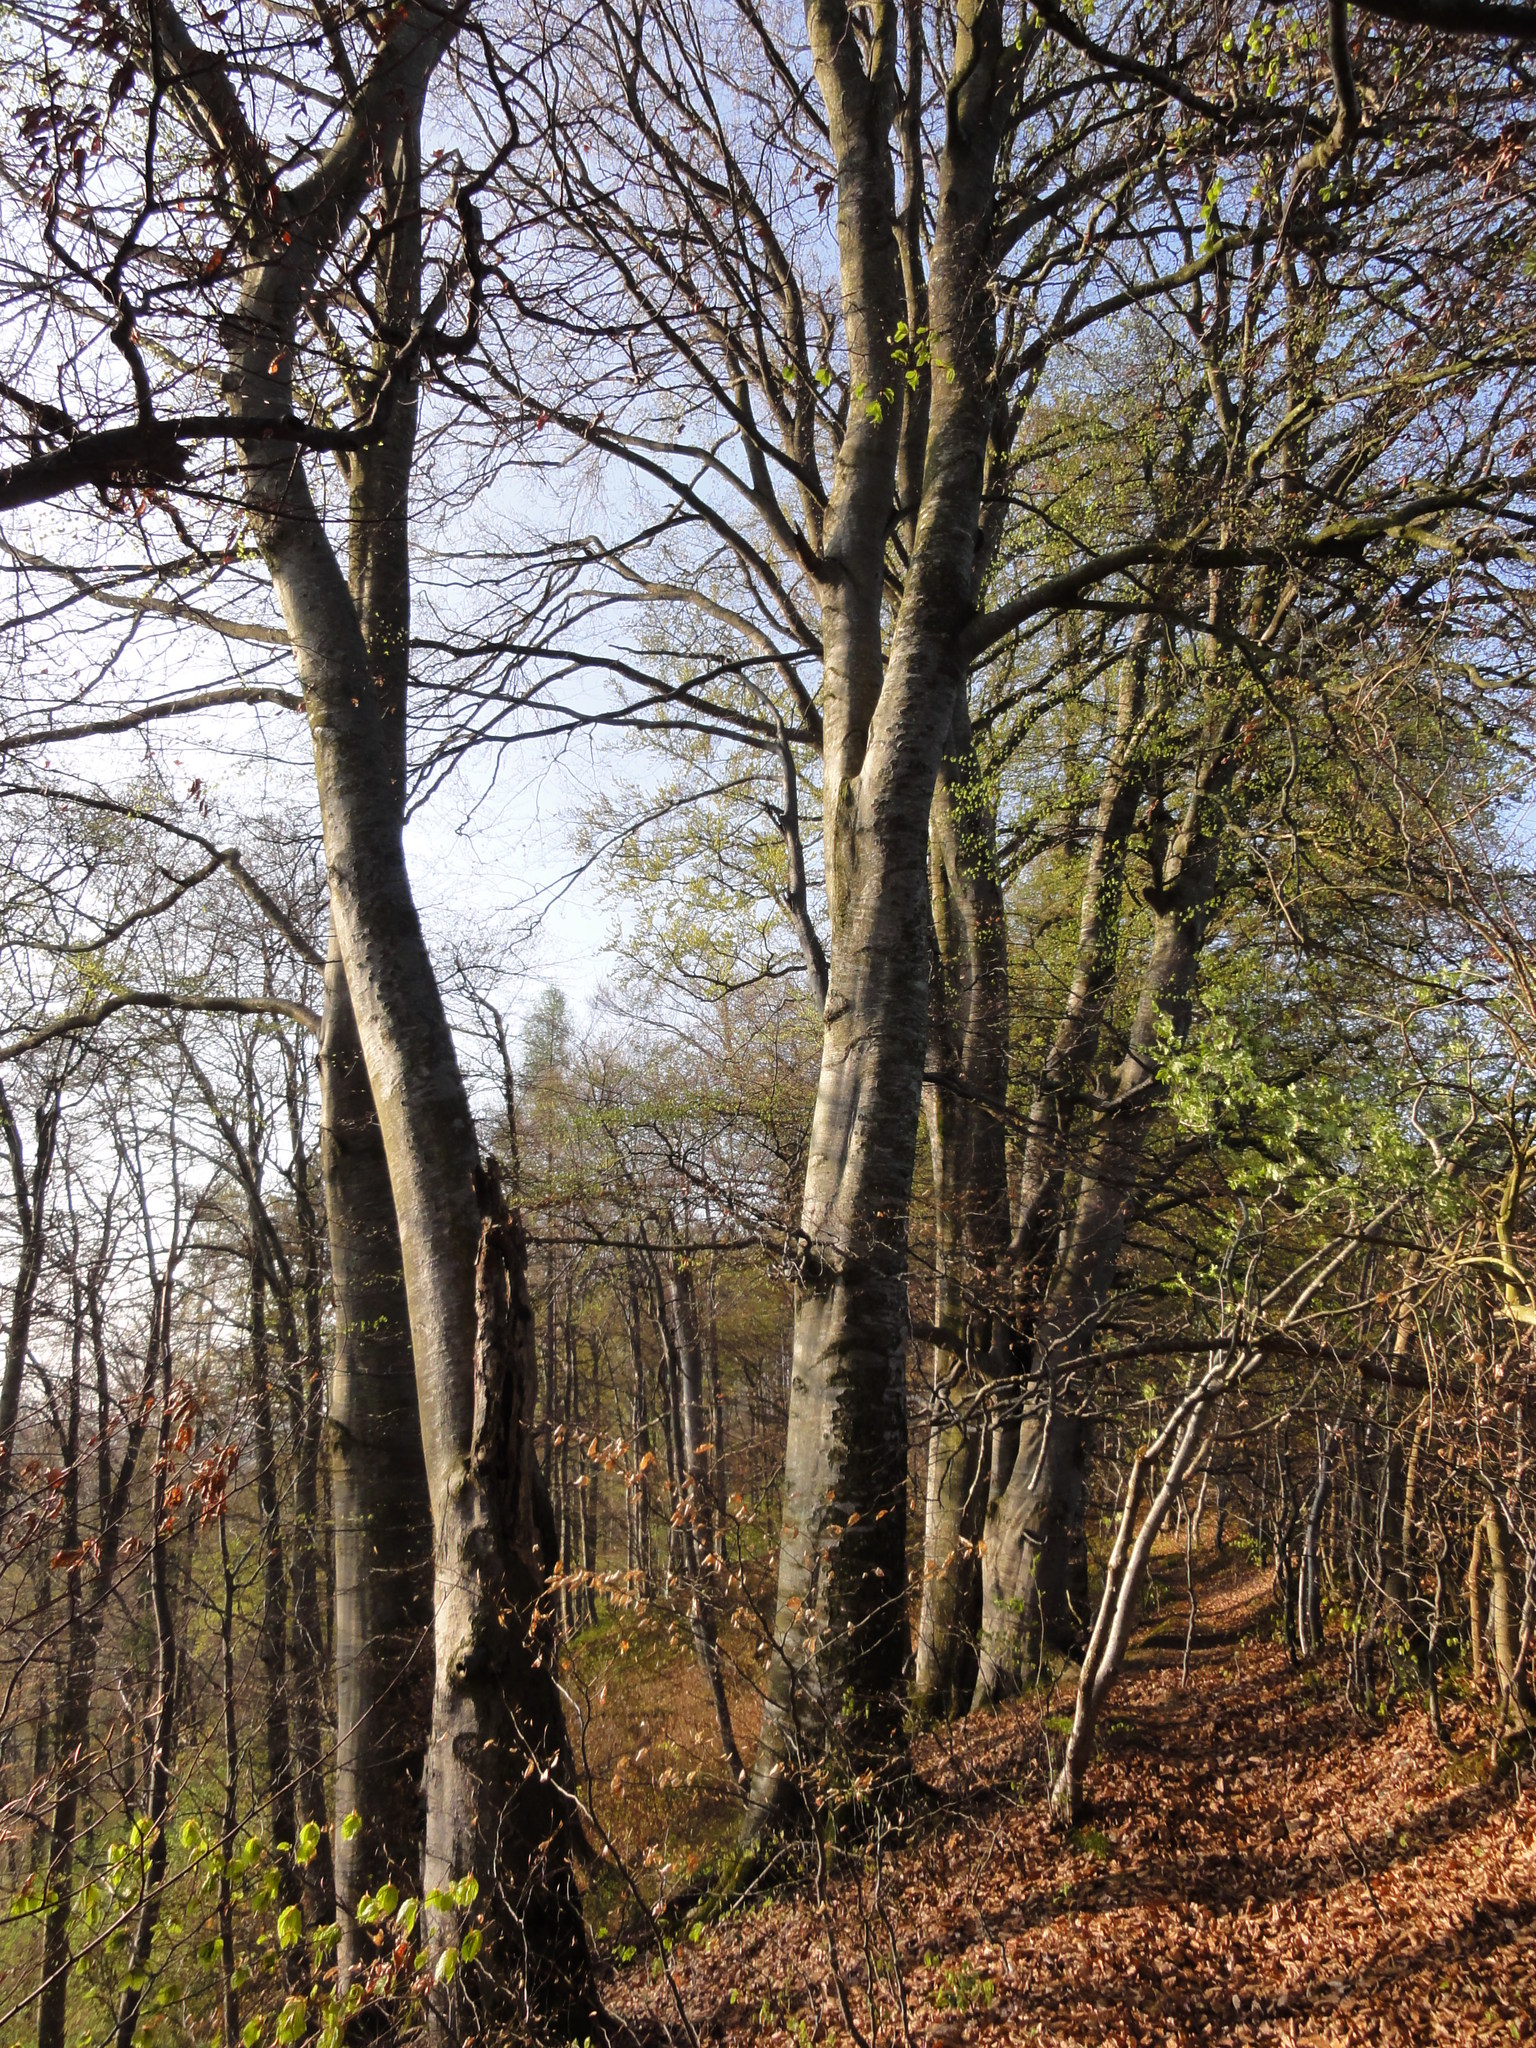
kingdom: Plantae
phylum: Tracheophyta
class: Magnoliopsida
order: Fagales
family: Fagaceae
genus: Fagus
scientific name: Fagus sylvatica
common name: Beech
